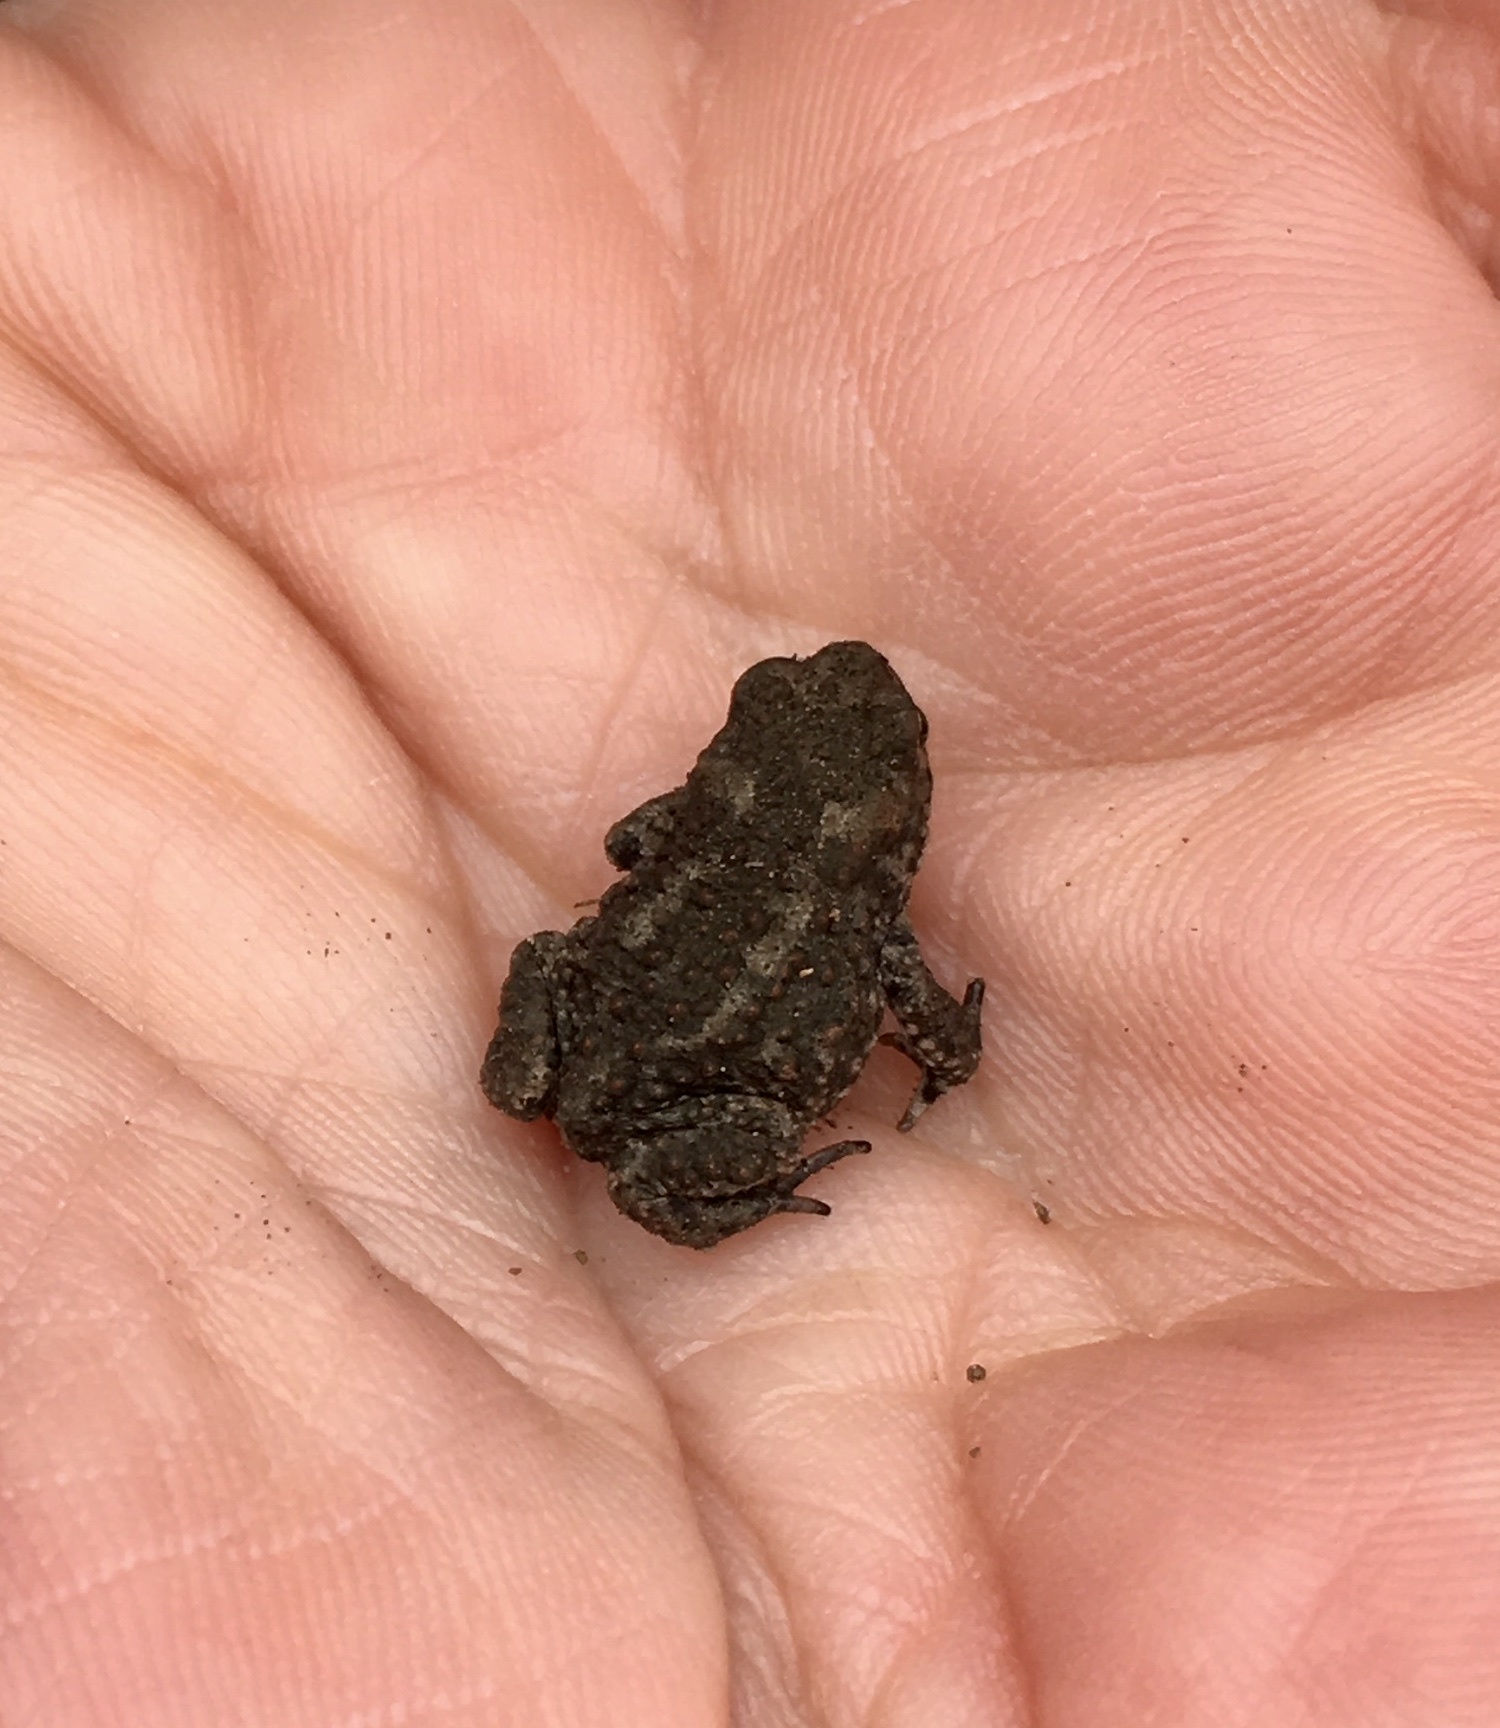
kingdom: Animalia
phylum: Chordata
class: Amphibia
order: Anura
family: Bufonidae
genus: Vandijkophrynus
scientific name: Vandijkophrynus
